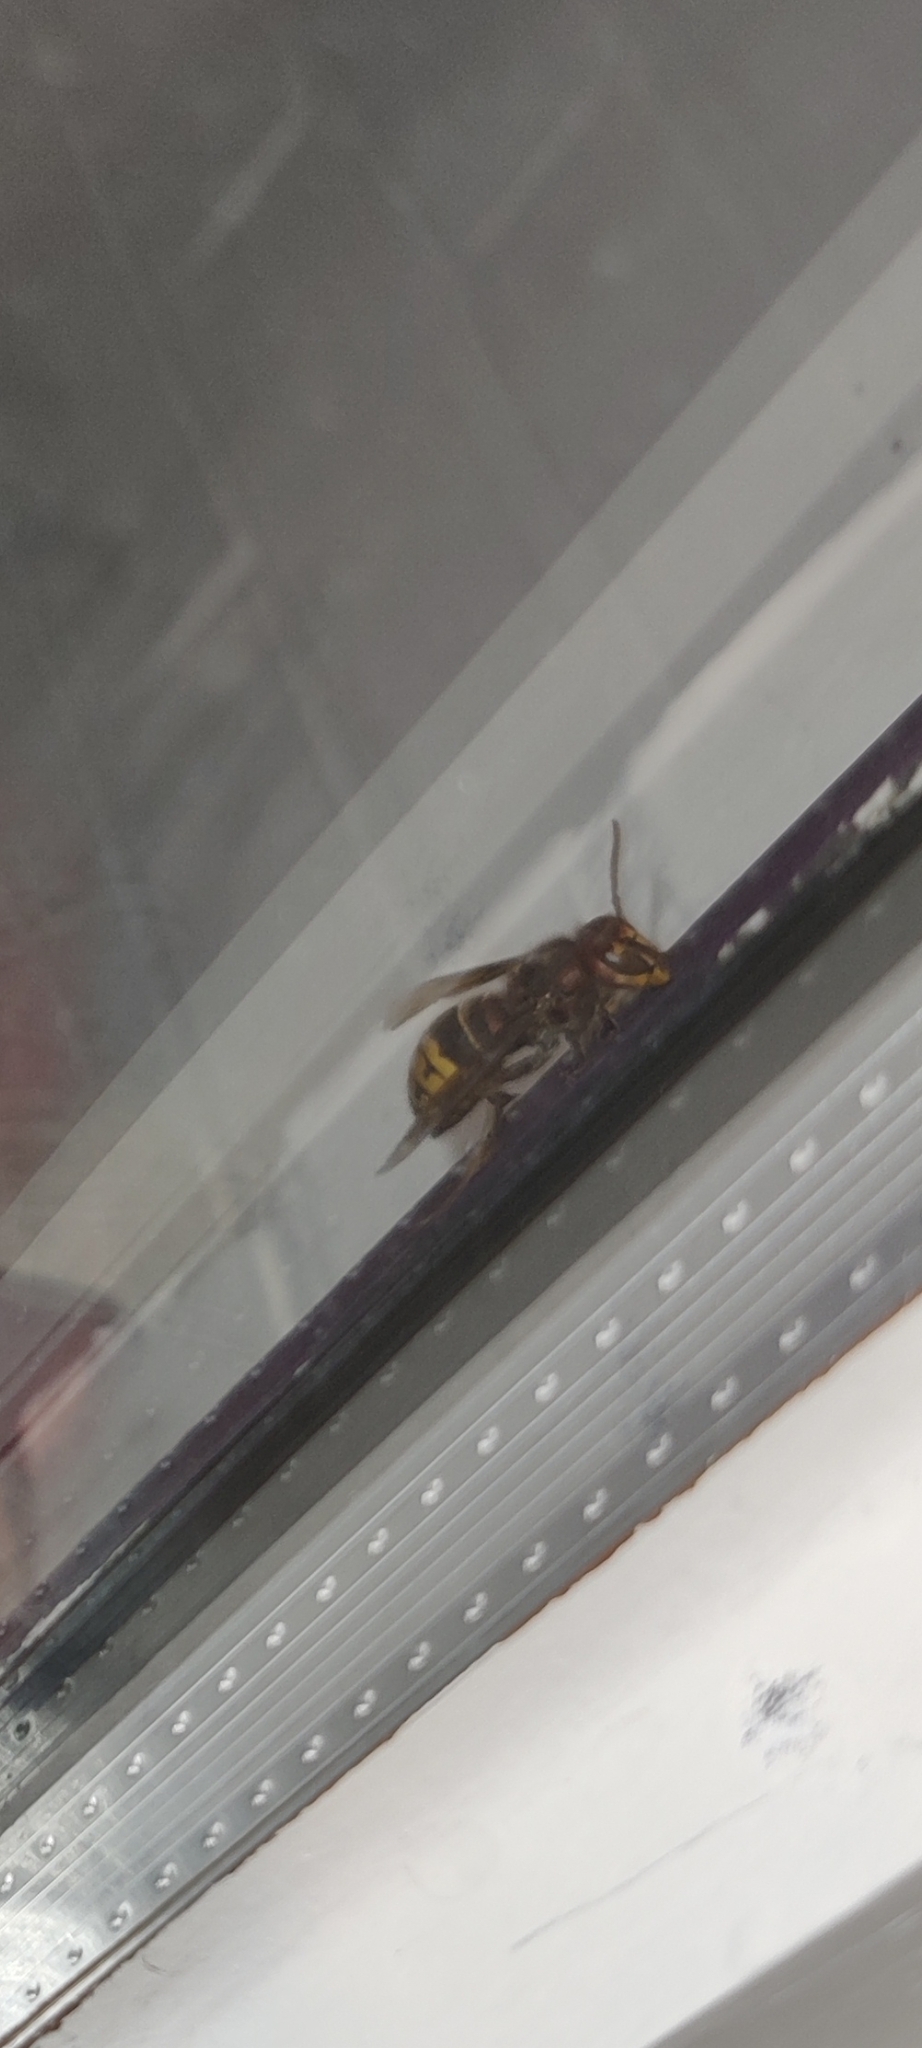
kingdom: Animalia
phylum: Arthropoda
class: Insecta
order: Hymenoptera
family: Vespidae
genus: Vespa
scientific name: Vespa crabro
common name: Hornet
